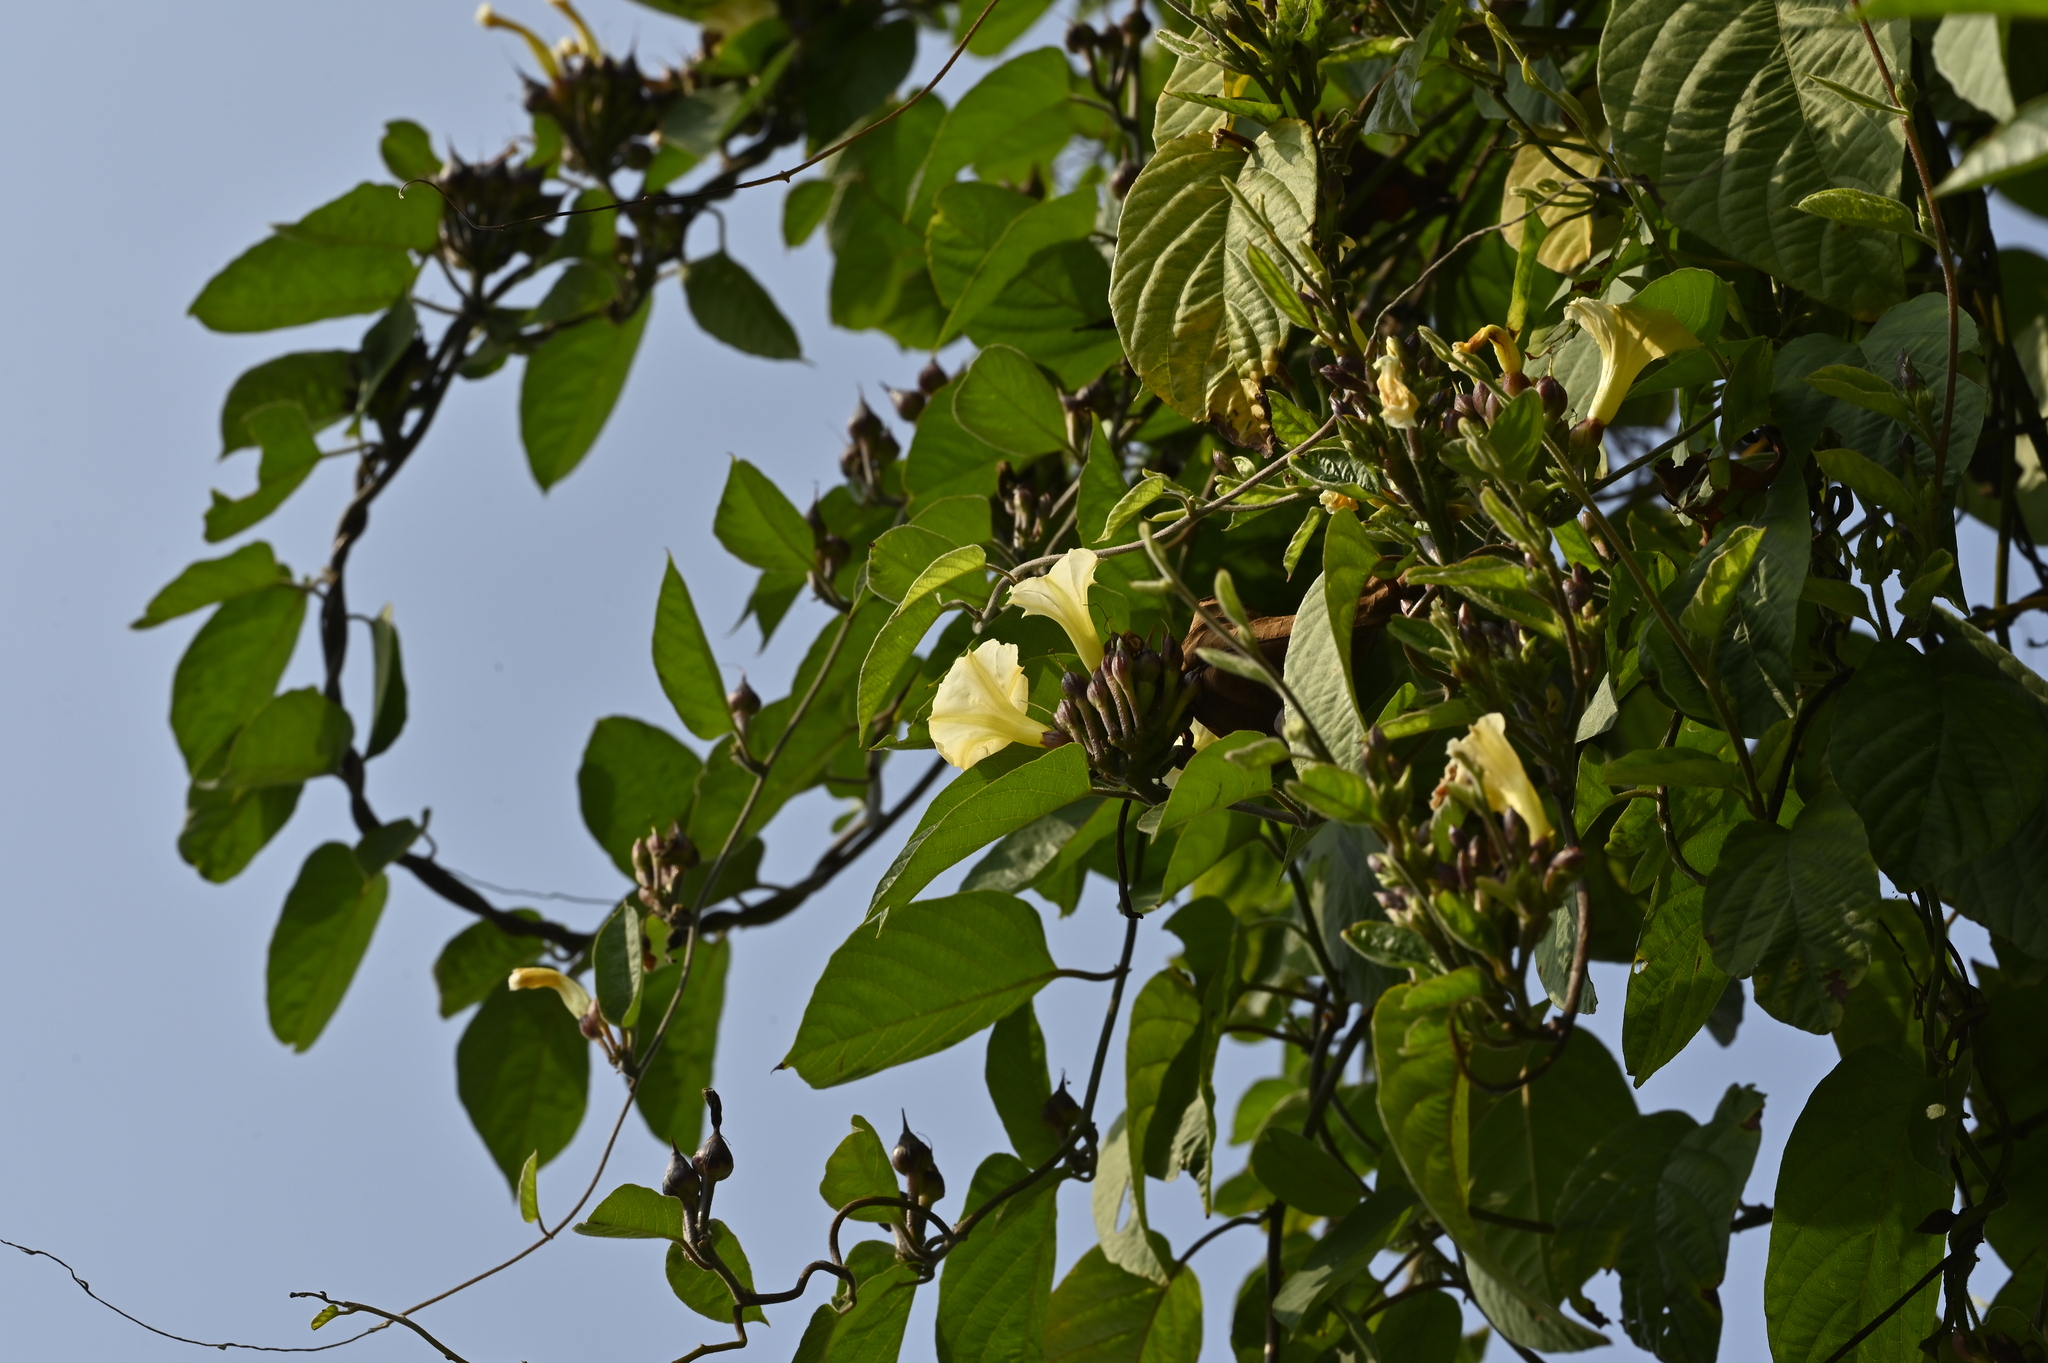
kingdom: Plantae
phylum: Tracheophyta
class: Magnoliopsida
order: Solanales
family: Convolvulaceae
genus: Camonea
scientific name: Camonea pilosa
